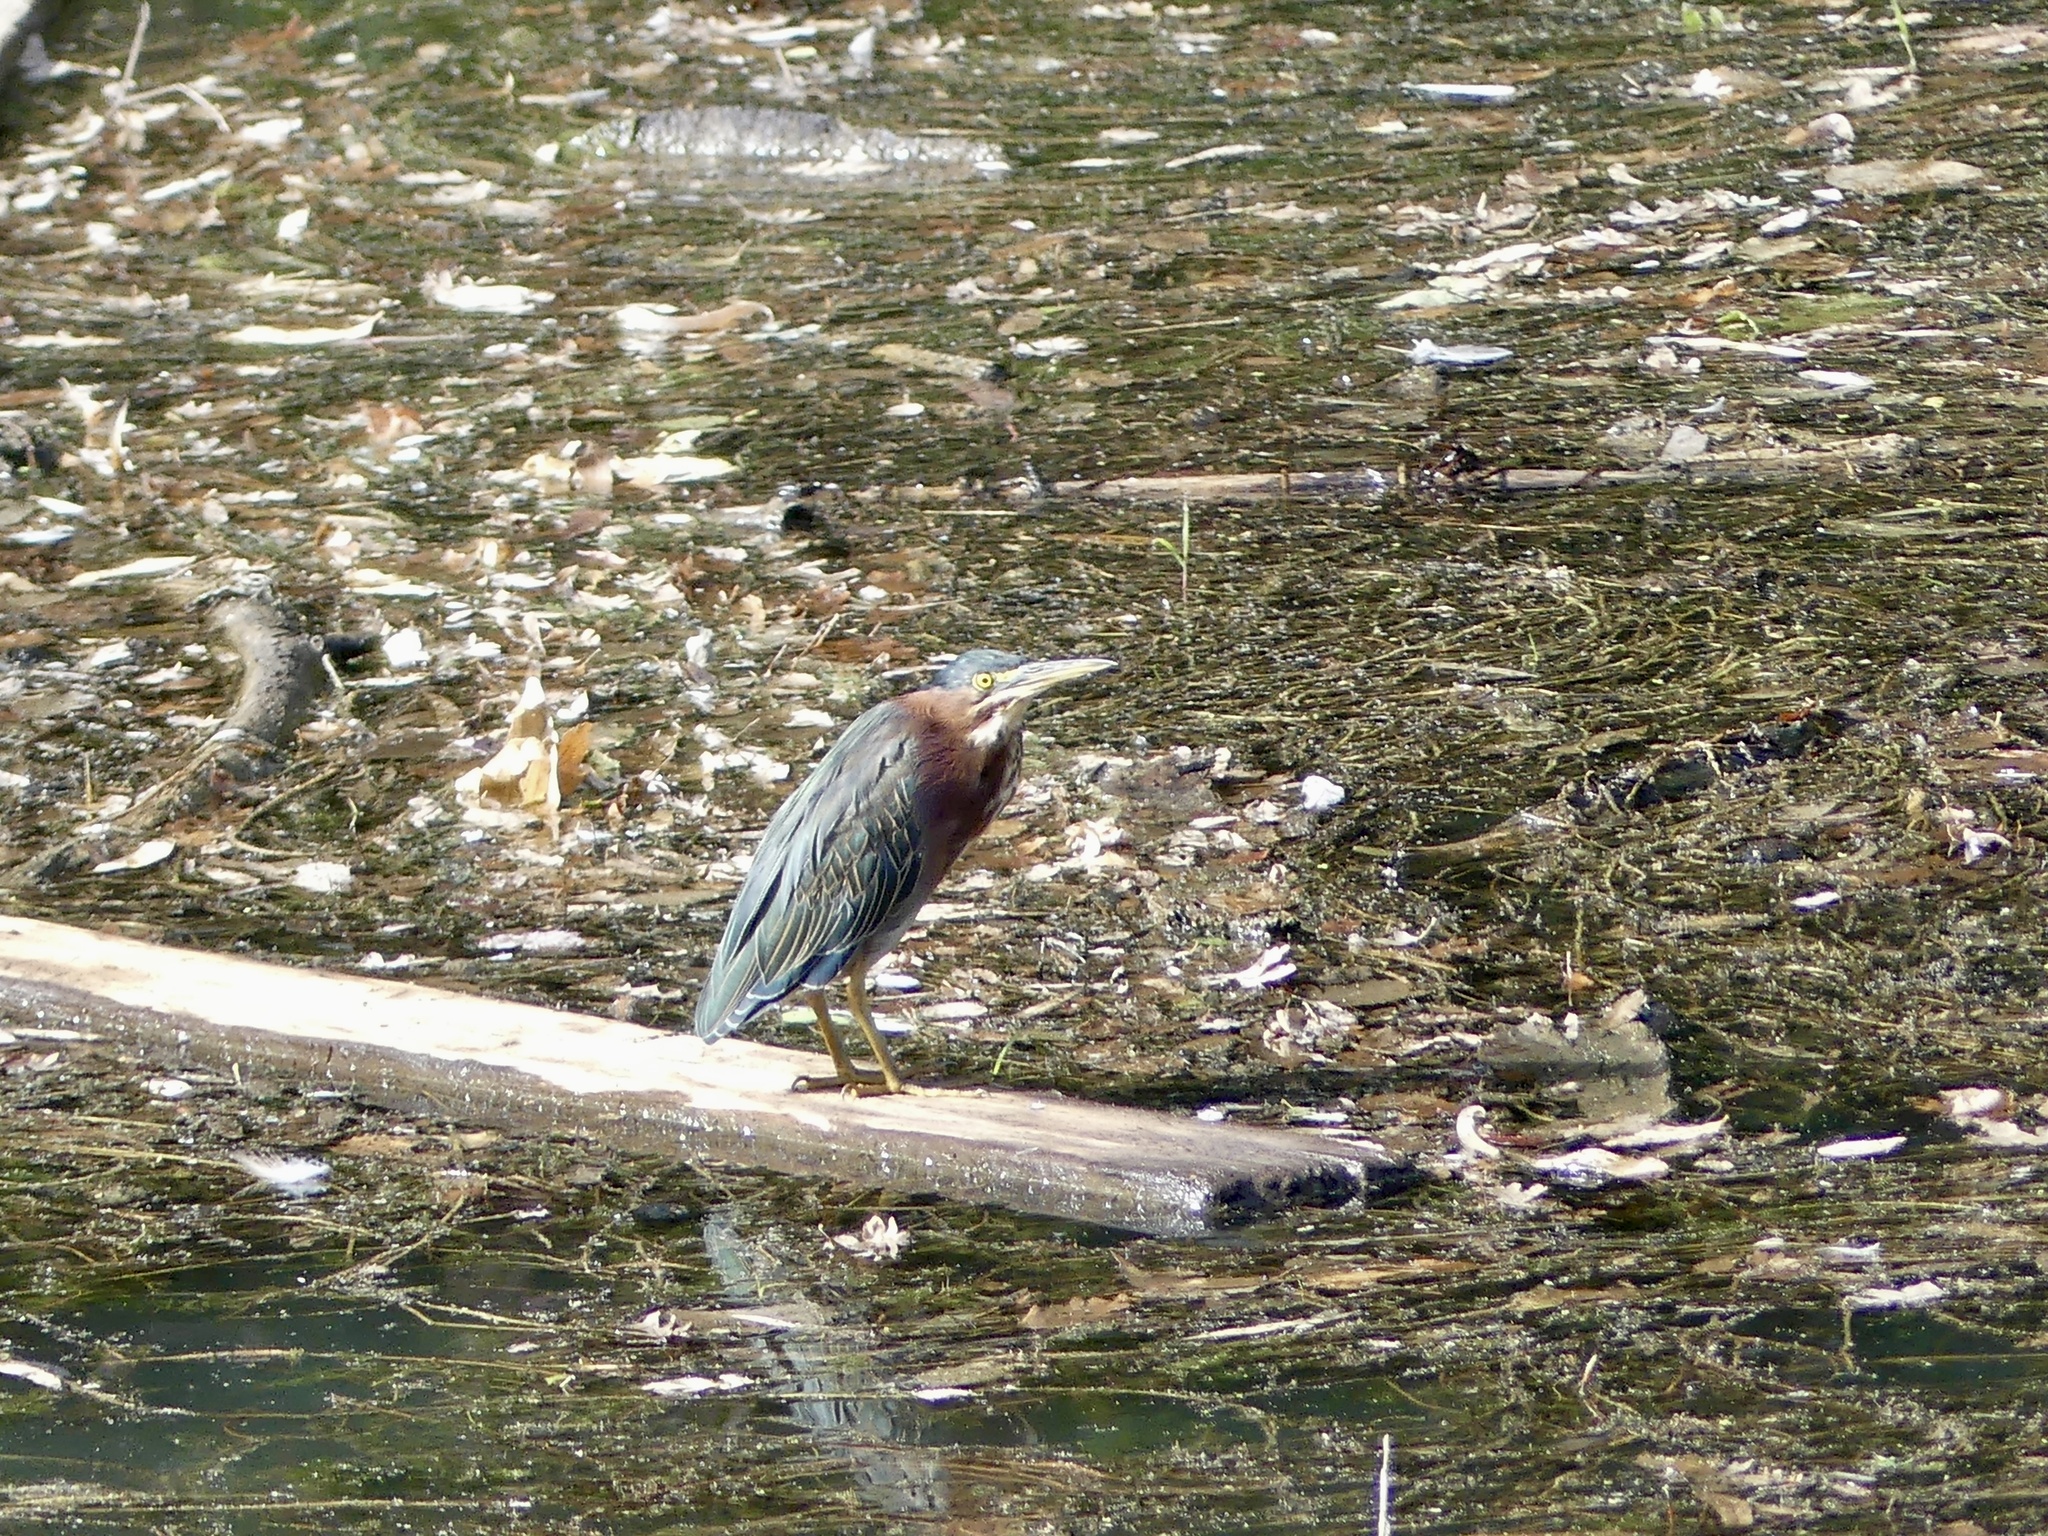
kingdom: Animalia
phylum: Chordata
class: Aves
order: Pelecaniformes
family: Ardeidae
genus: Butorides
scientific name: Butorides virescens
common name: Green heron
